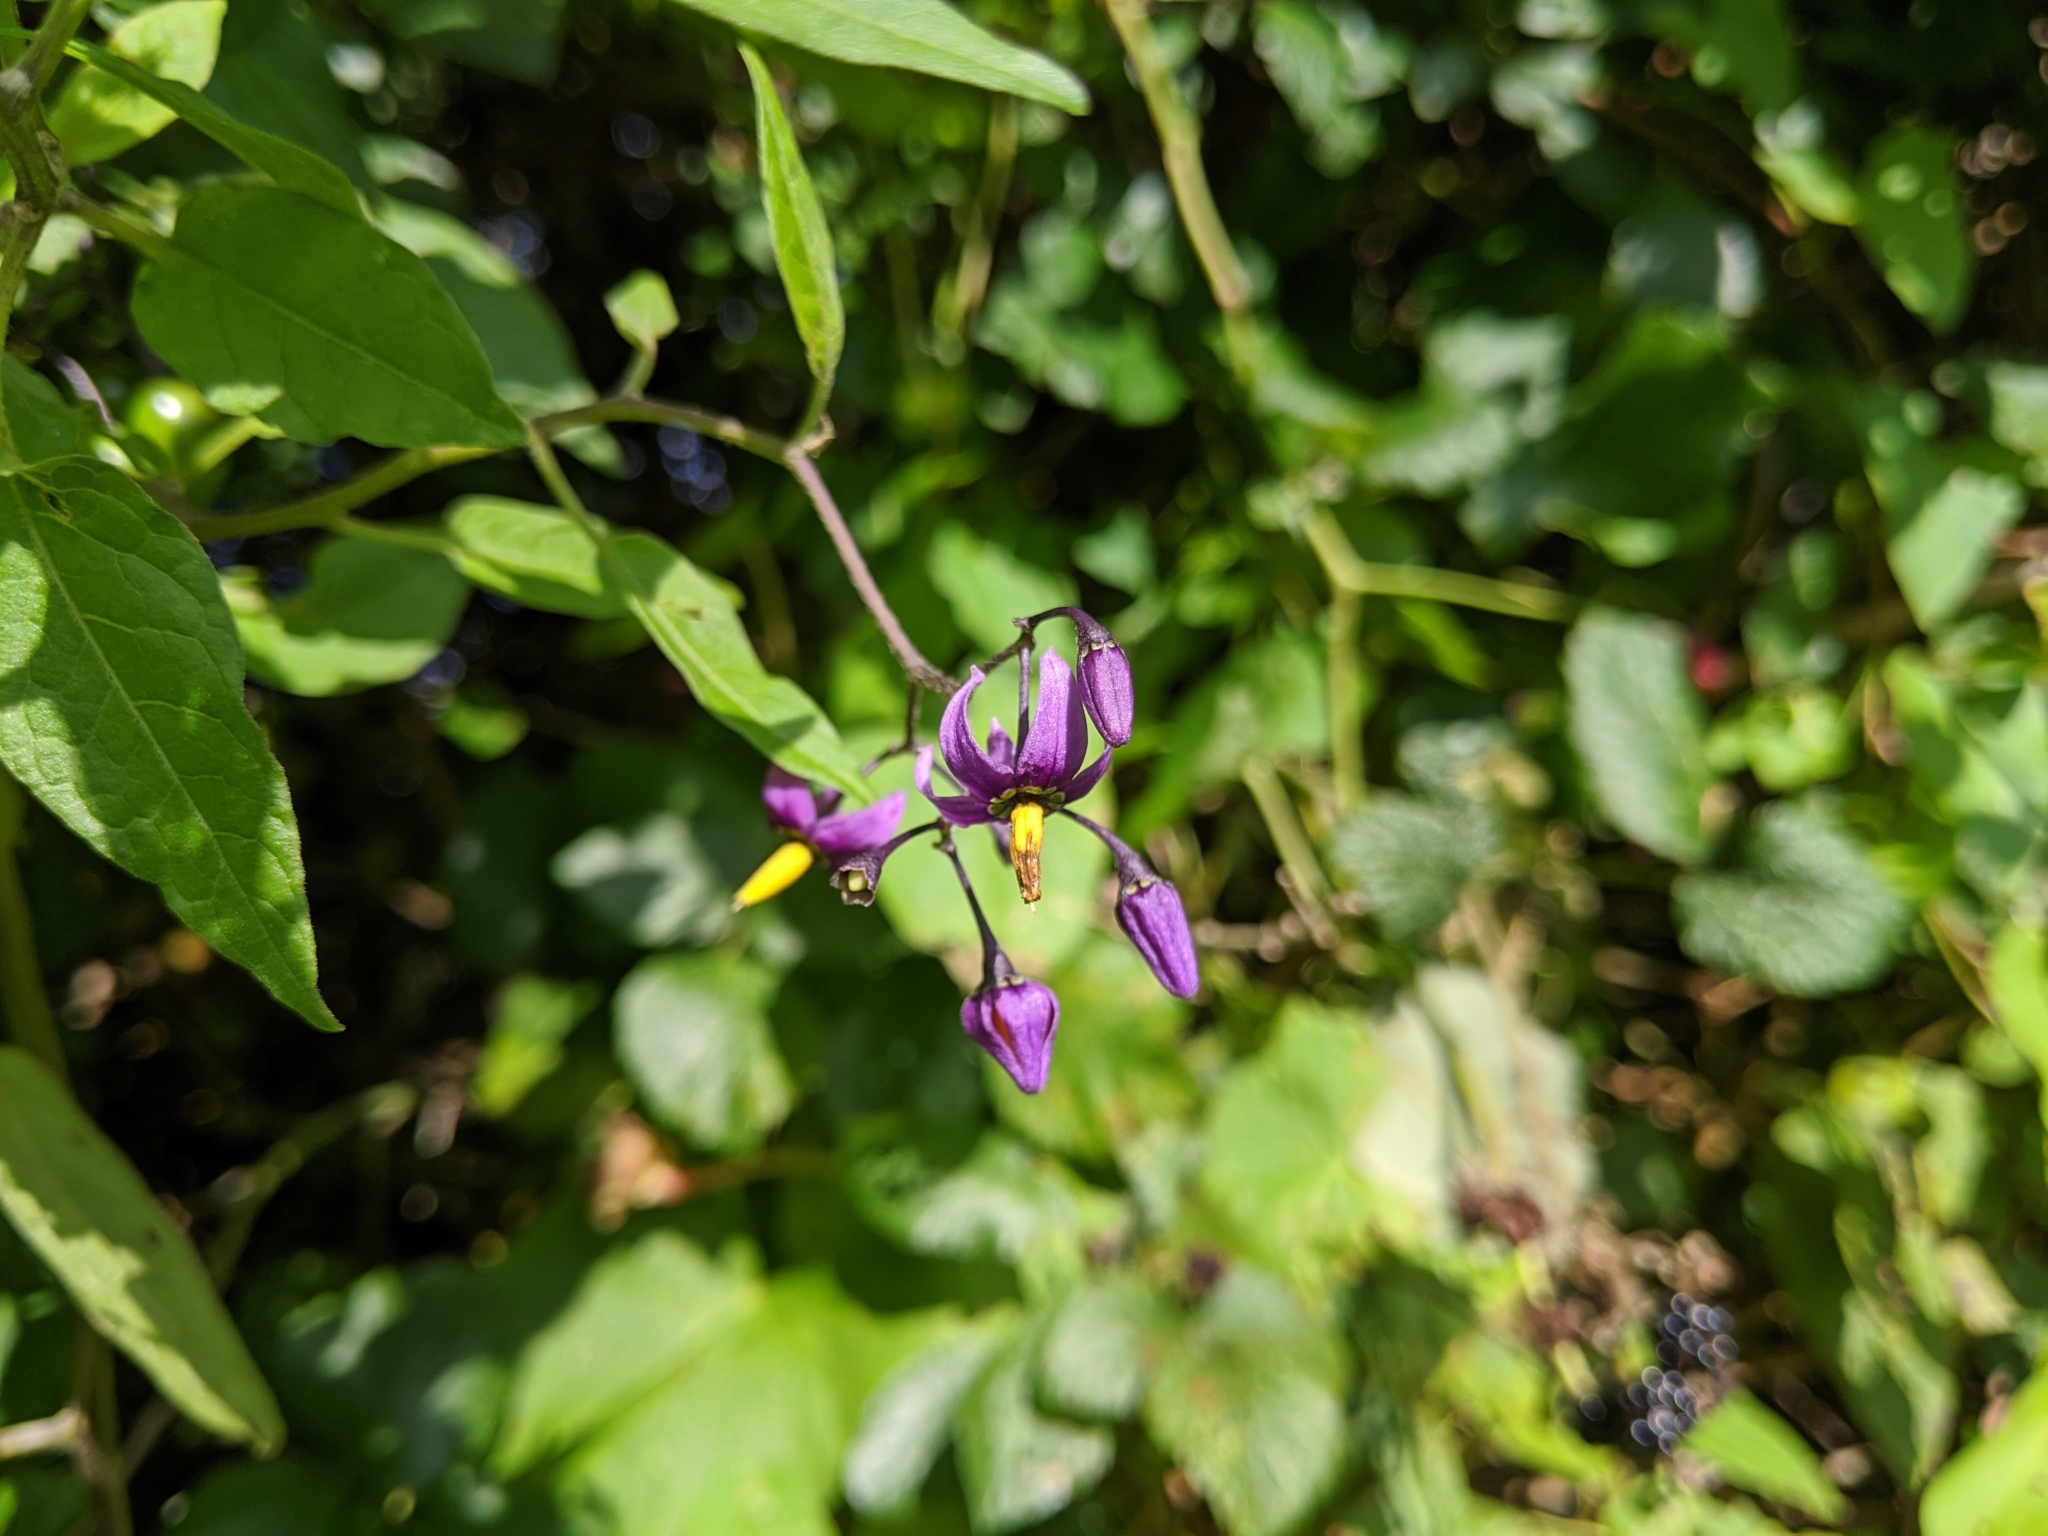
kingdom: Plantae
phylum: Tracheophyta
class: Magnoliopsida
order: Solanales
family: Solanaceae
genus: Solanum
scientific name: Solanum dulcamara
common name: Climbing nightshade
